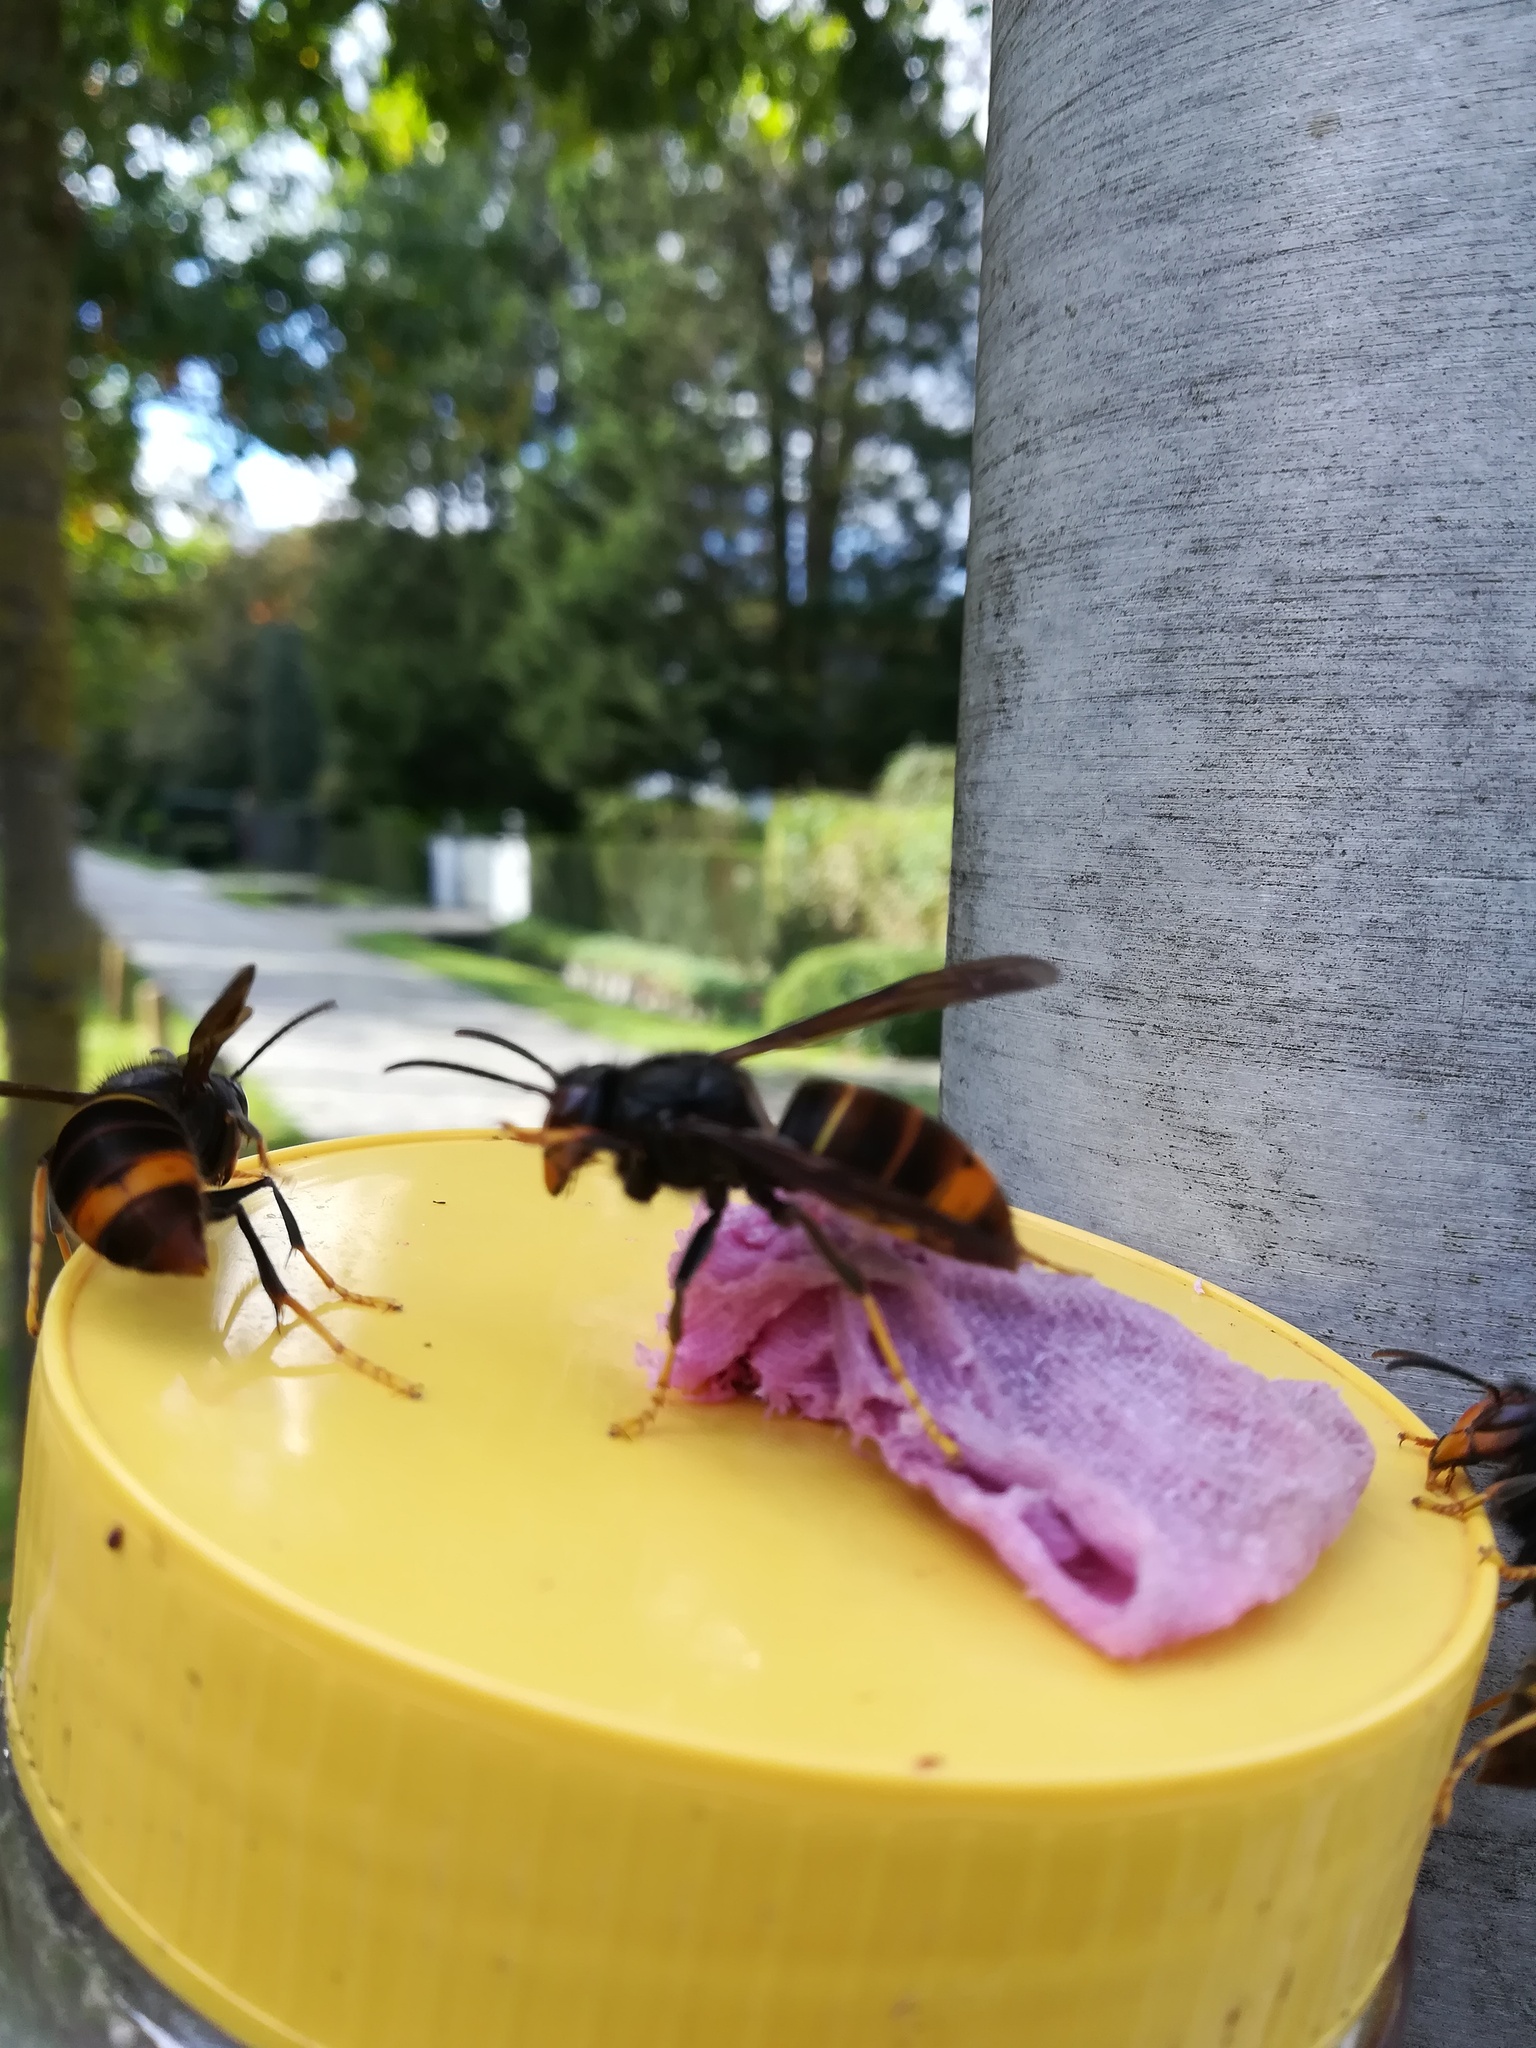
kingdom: Animalia
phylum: Arthropoda
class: Insecta
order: Hymenoptera
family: Vespidae
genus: Vespa
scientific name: Vespa velutina
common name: Asian hornet
